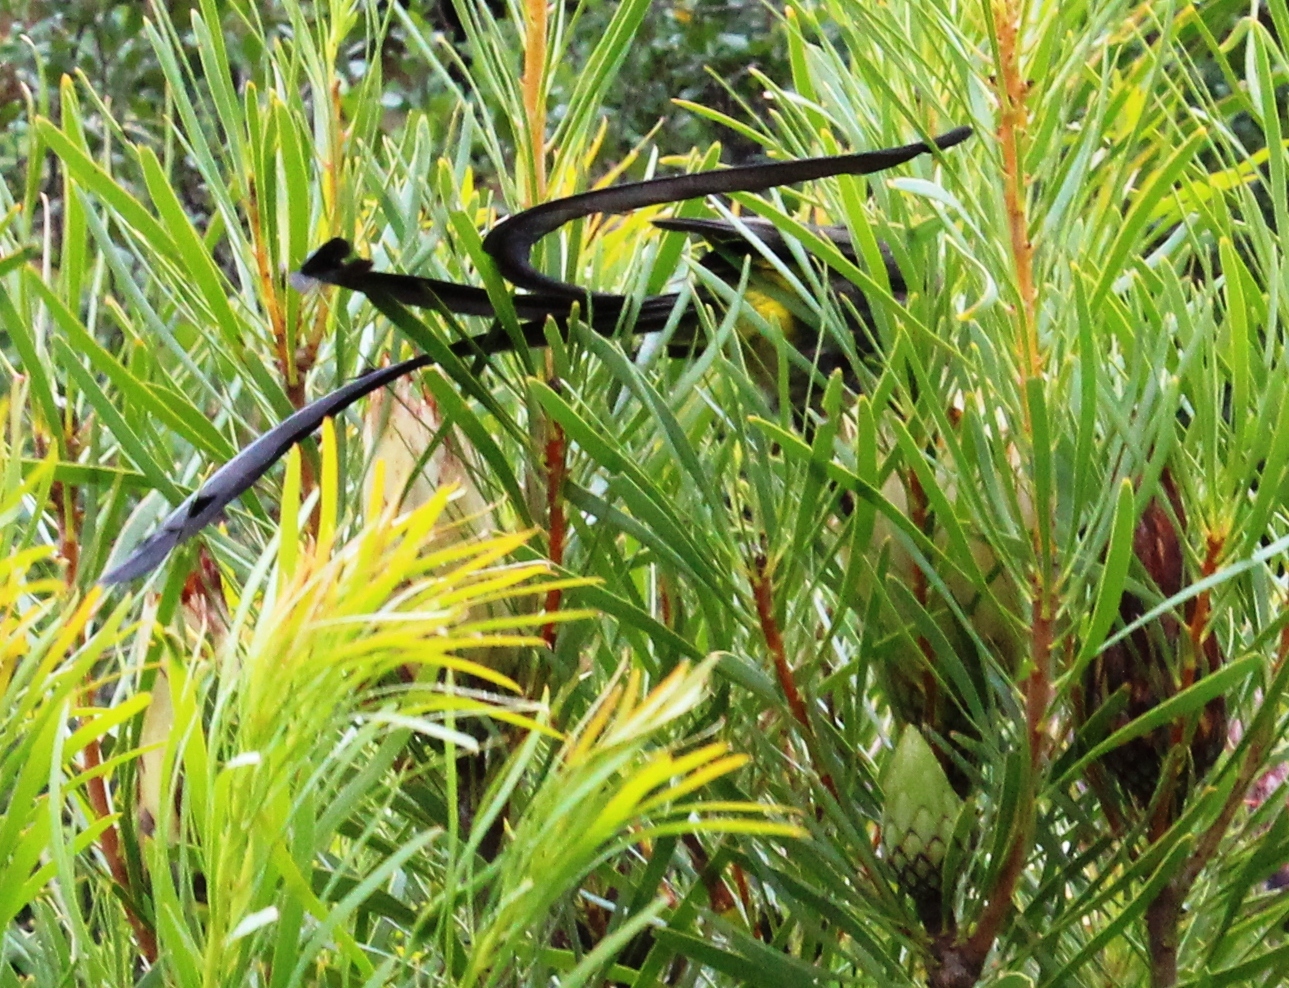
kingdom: Animalia
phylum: Chordata
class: Aves
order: Passeriformes
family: Promeropidae
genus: Promerops
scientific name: Promerops cafer
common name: Cape sugarbird
